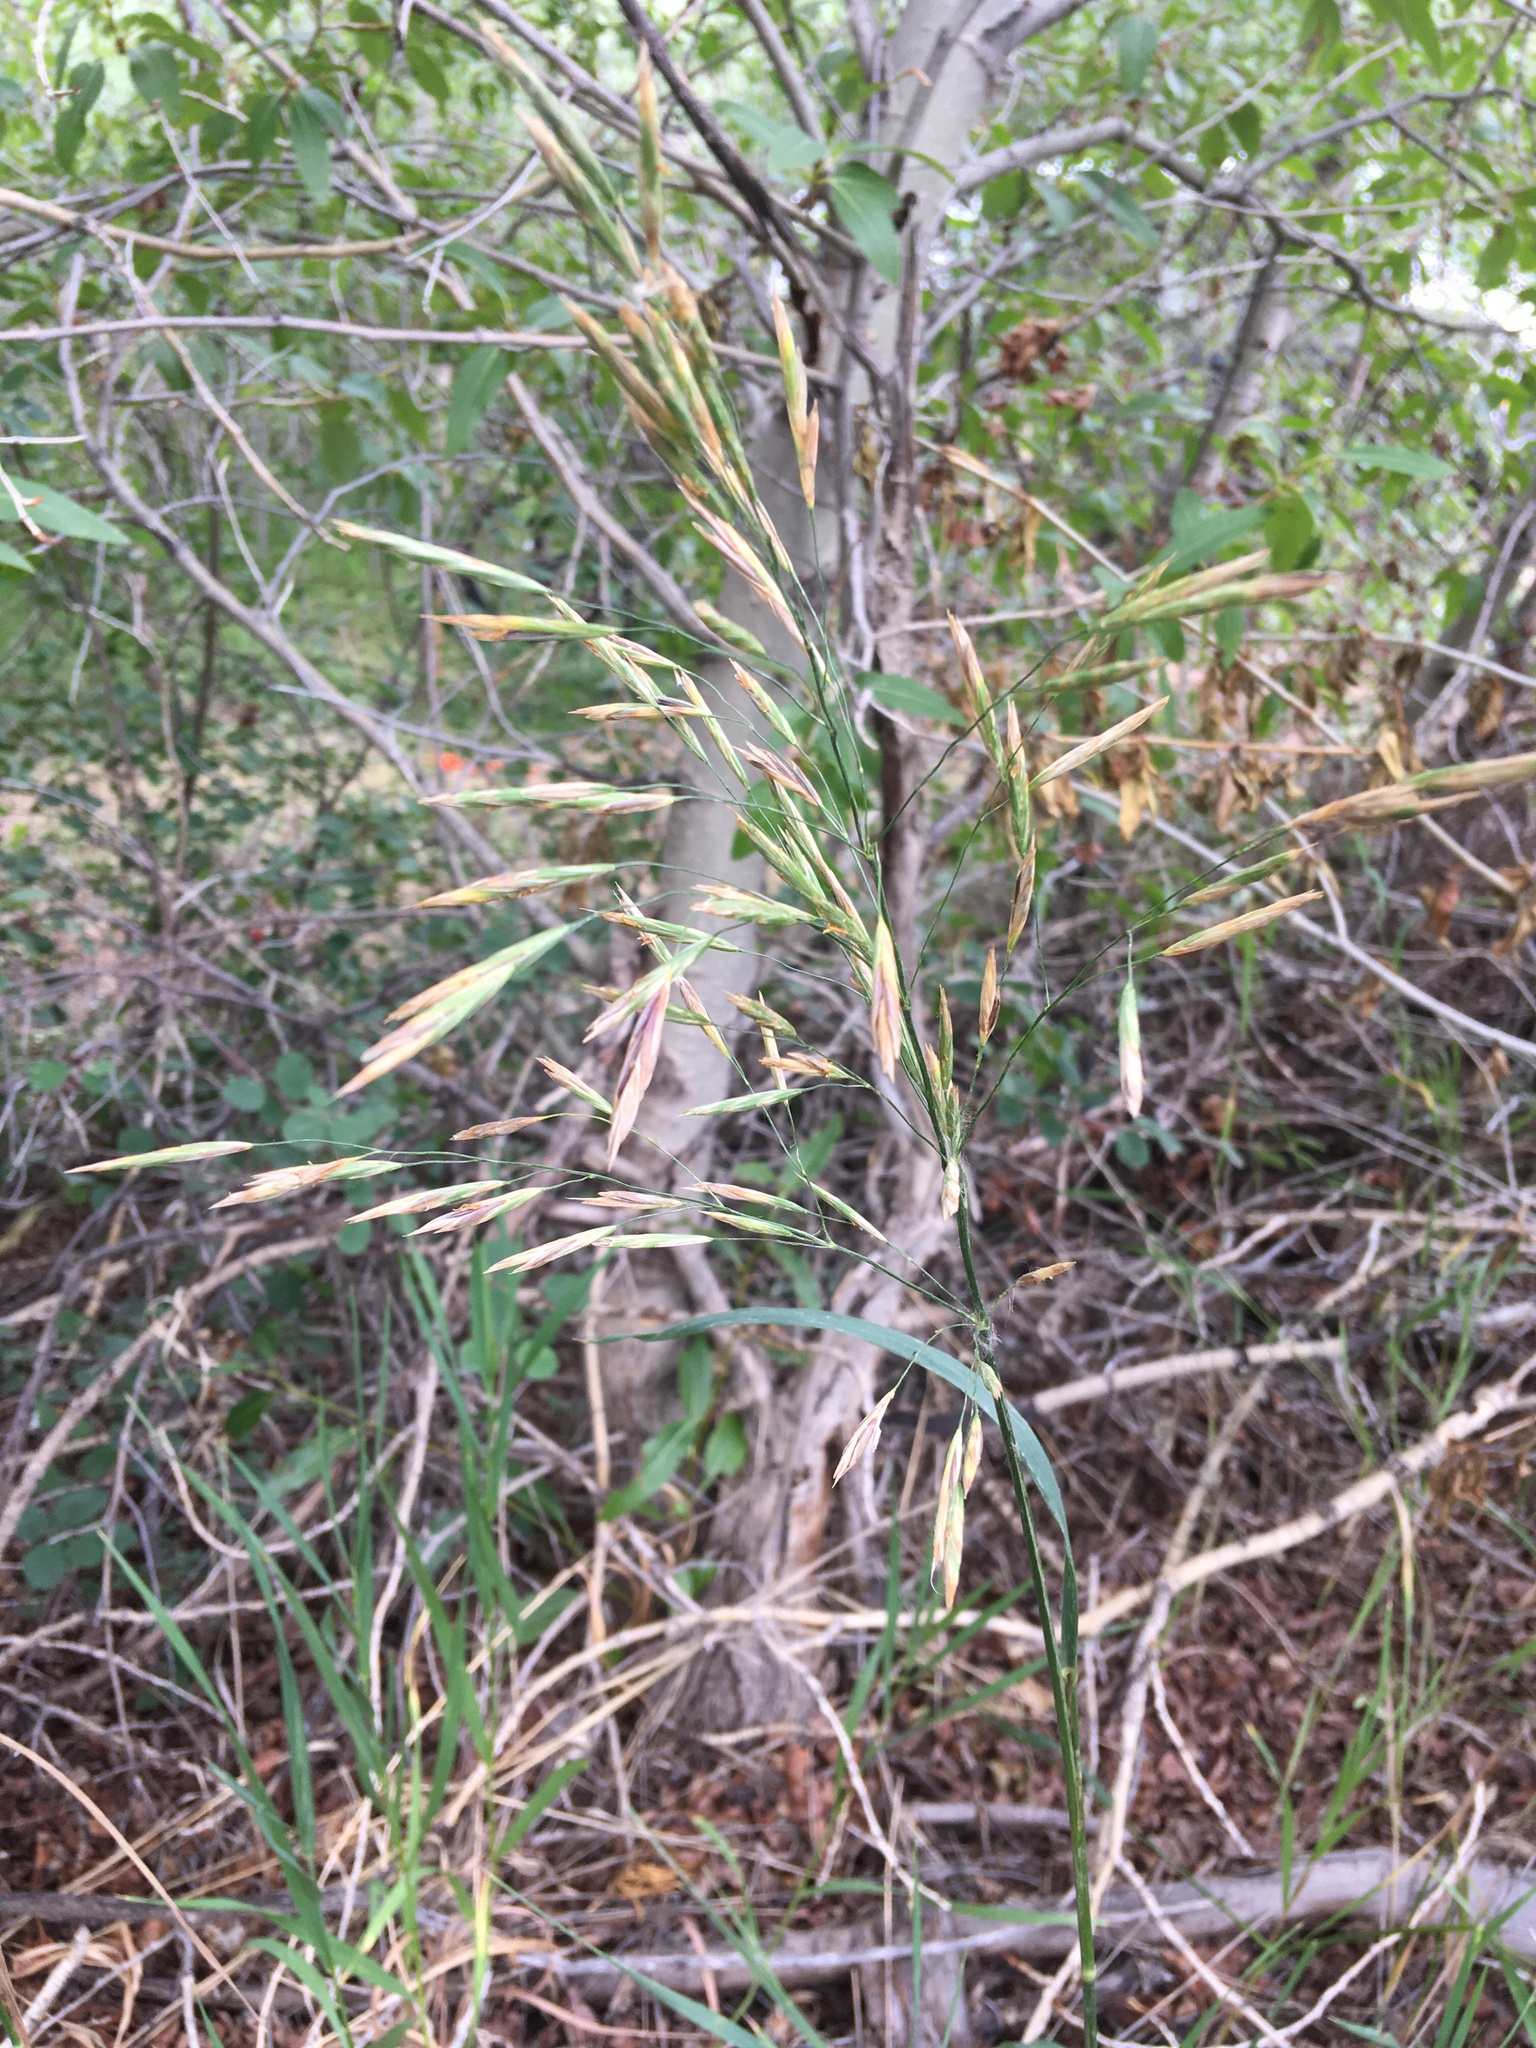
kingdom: Plantae
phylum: Tracheophyta
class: Liliopsida
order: Poales
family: Poaceae
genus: Bromus
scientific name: Bromus inermis
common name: Smooth brome
